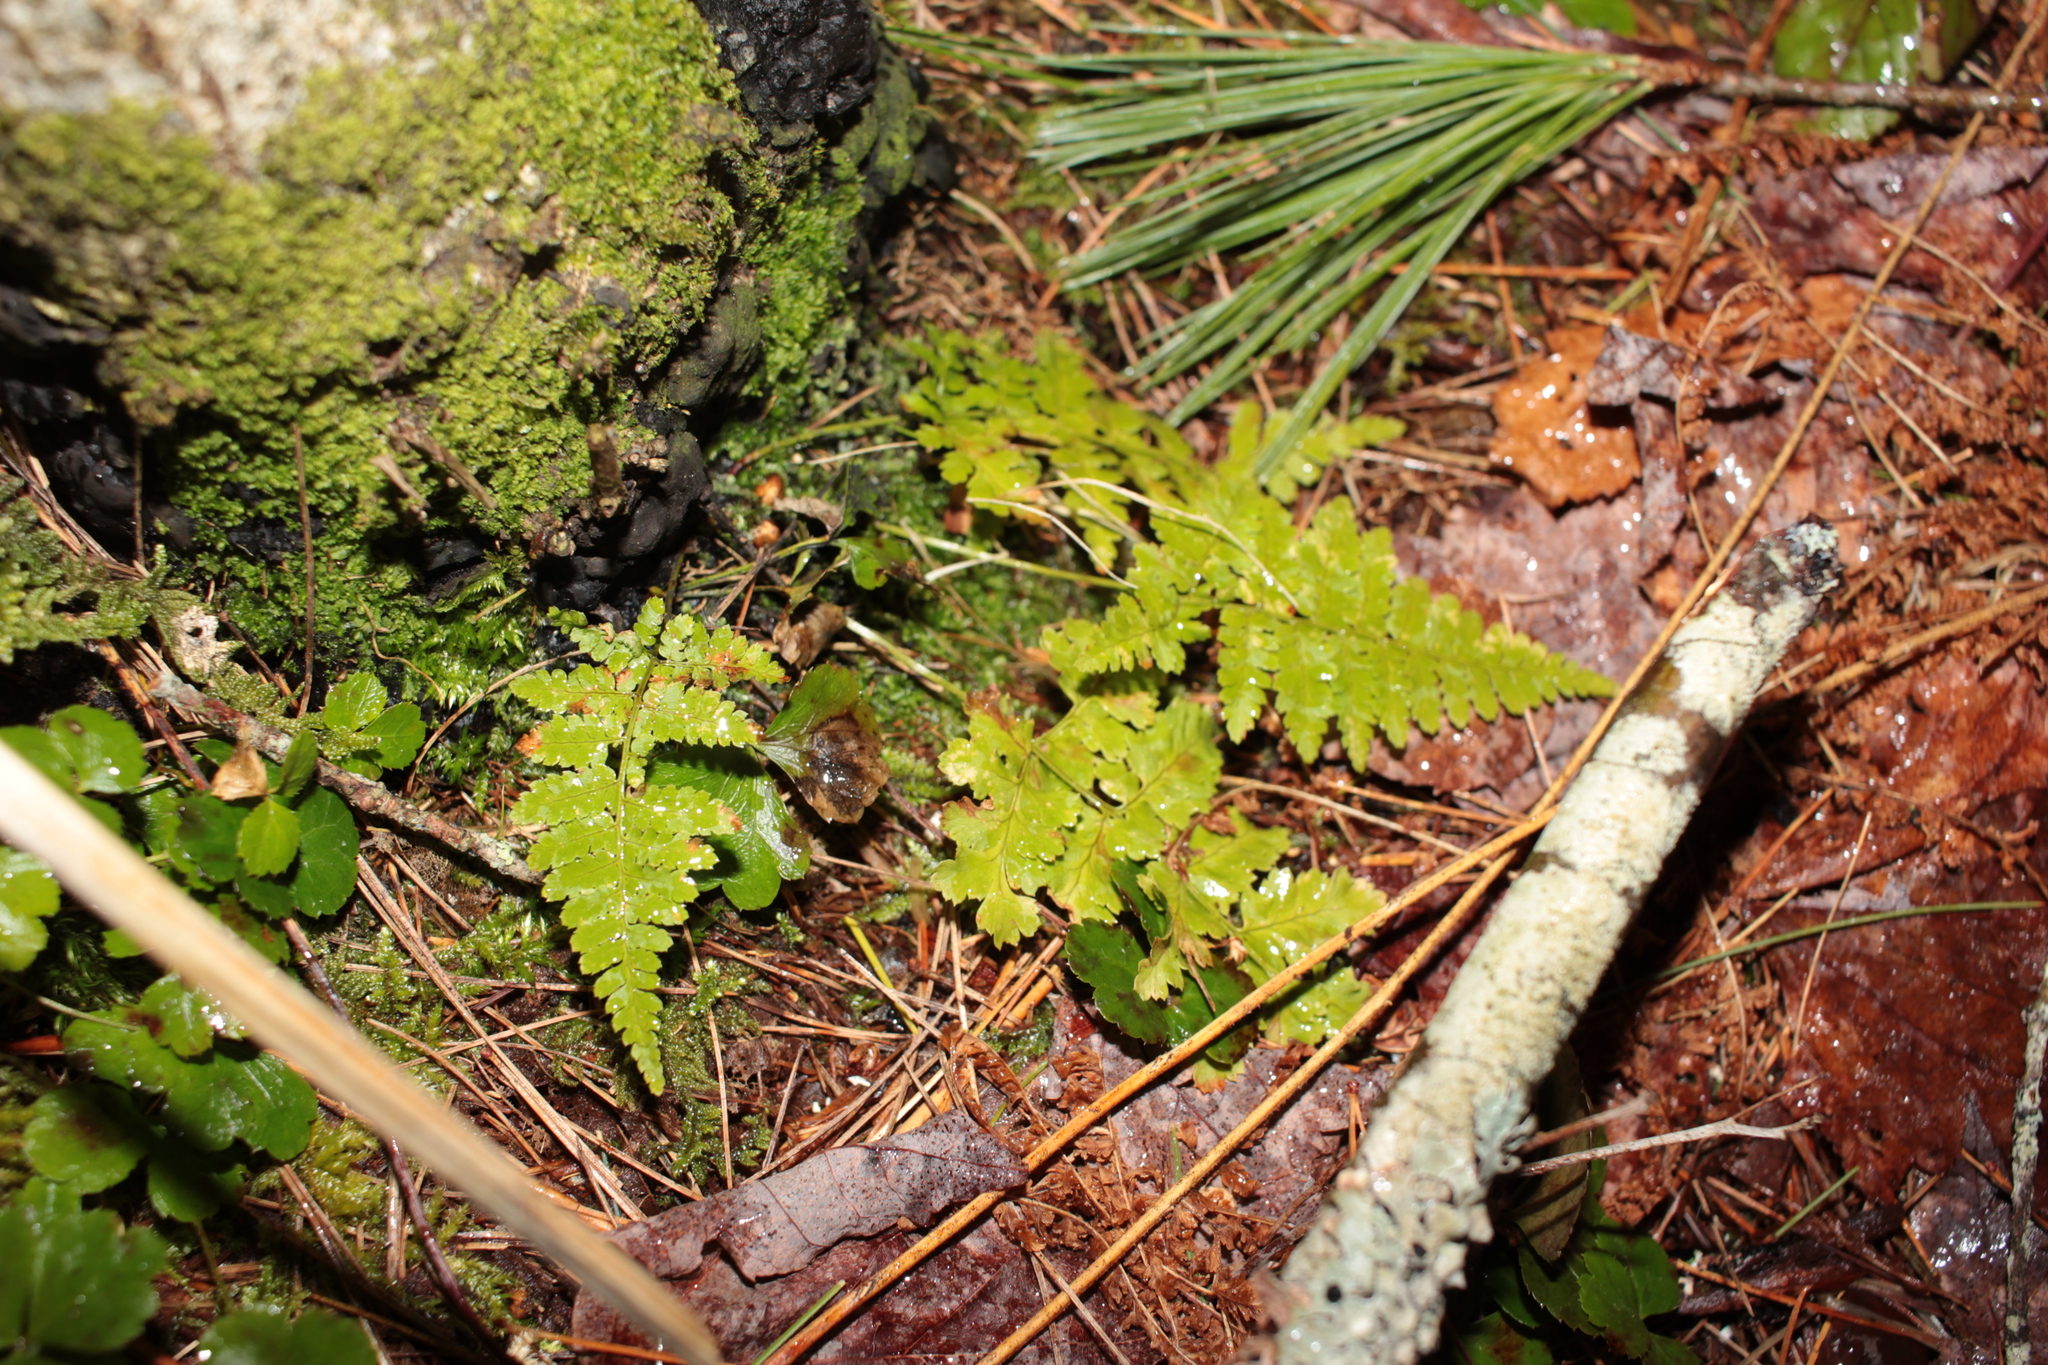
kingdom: Plantae
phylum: Tracheophyta
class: Polypodiopsida
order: Polypodiales
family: Dryopteridaceae
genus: Dryopteris
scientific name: Dryopteris
